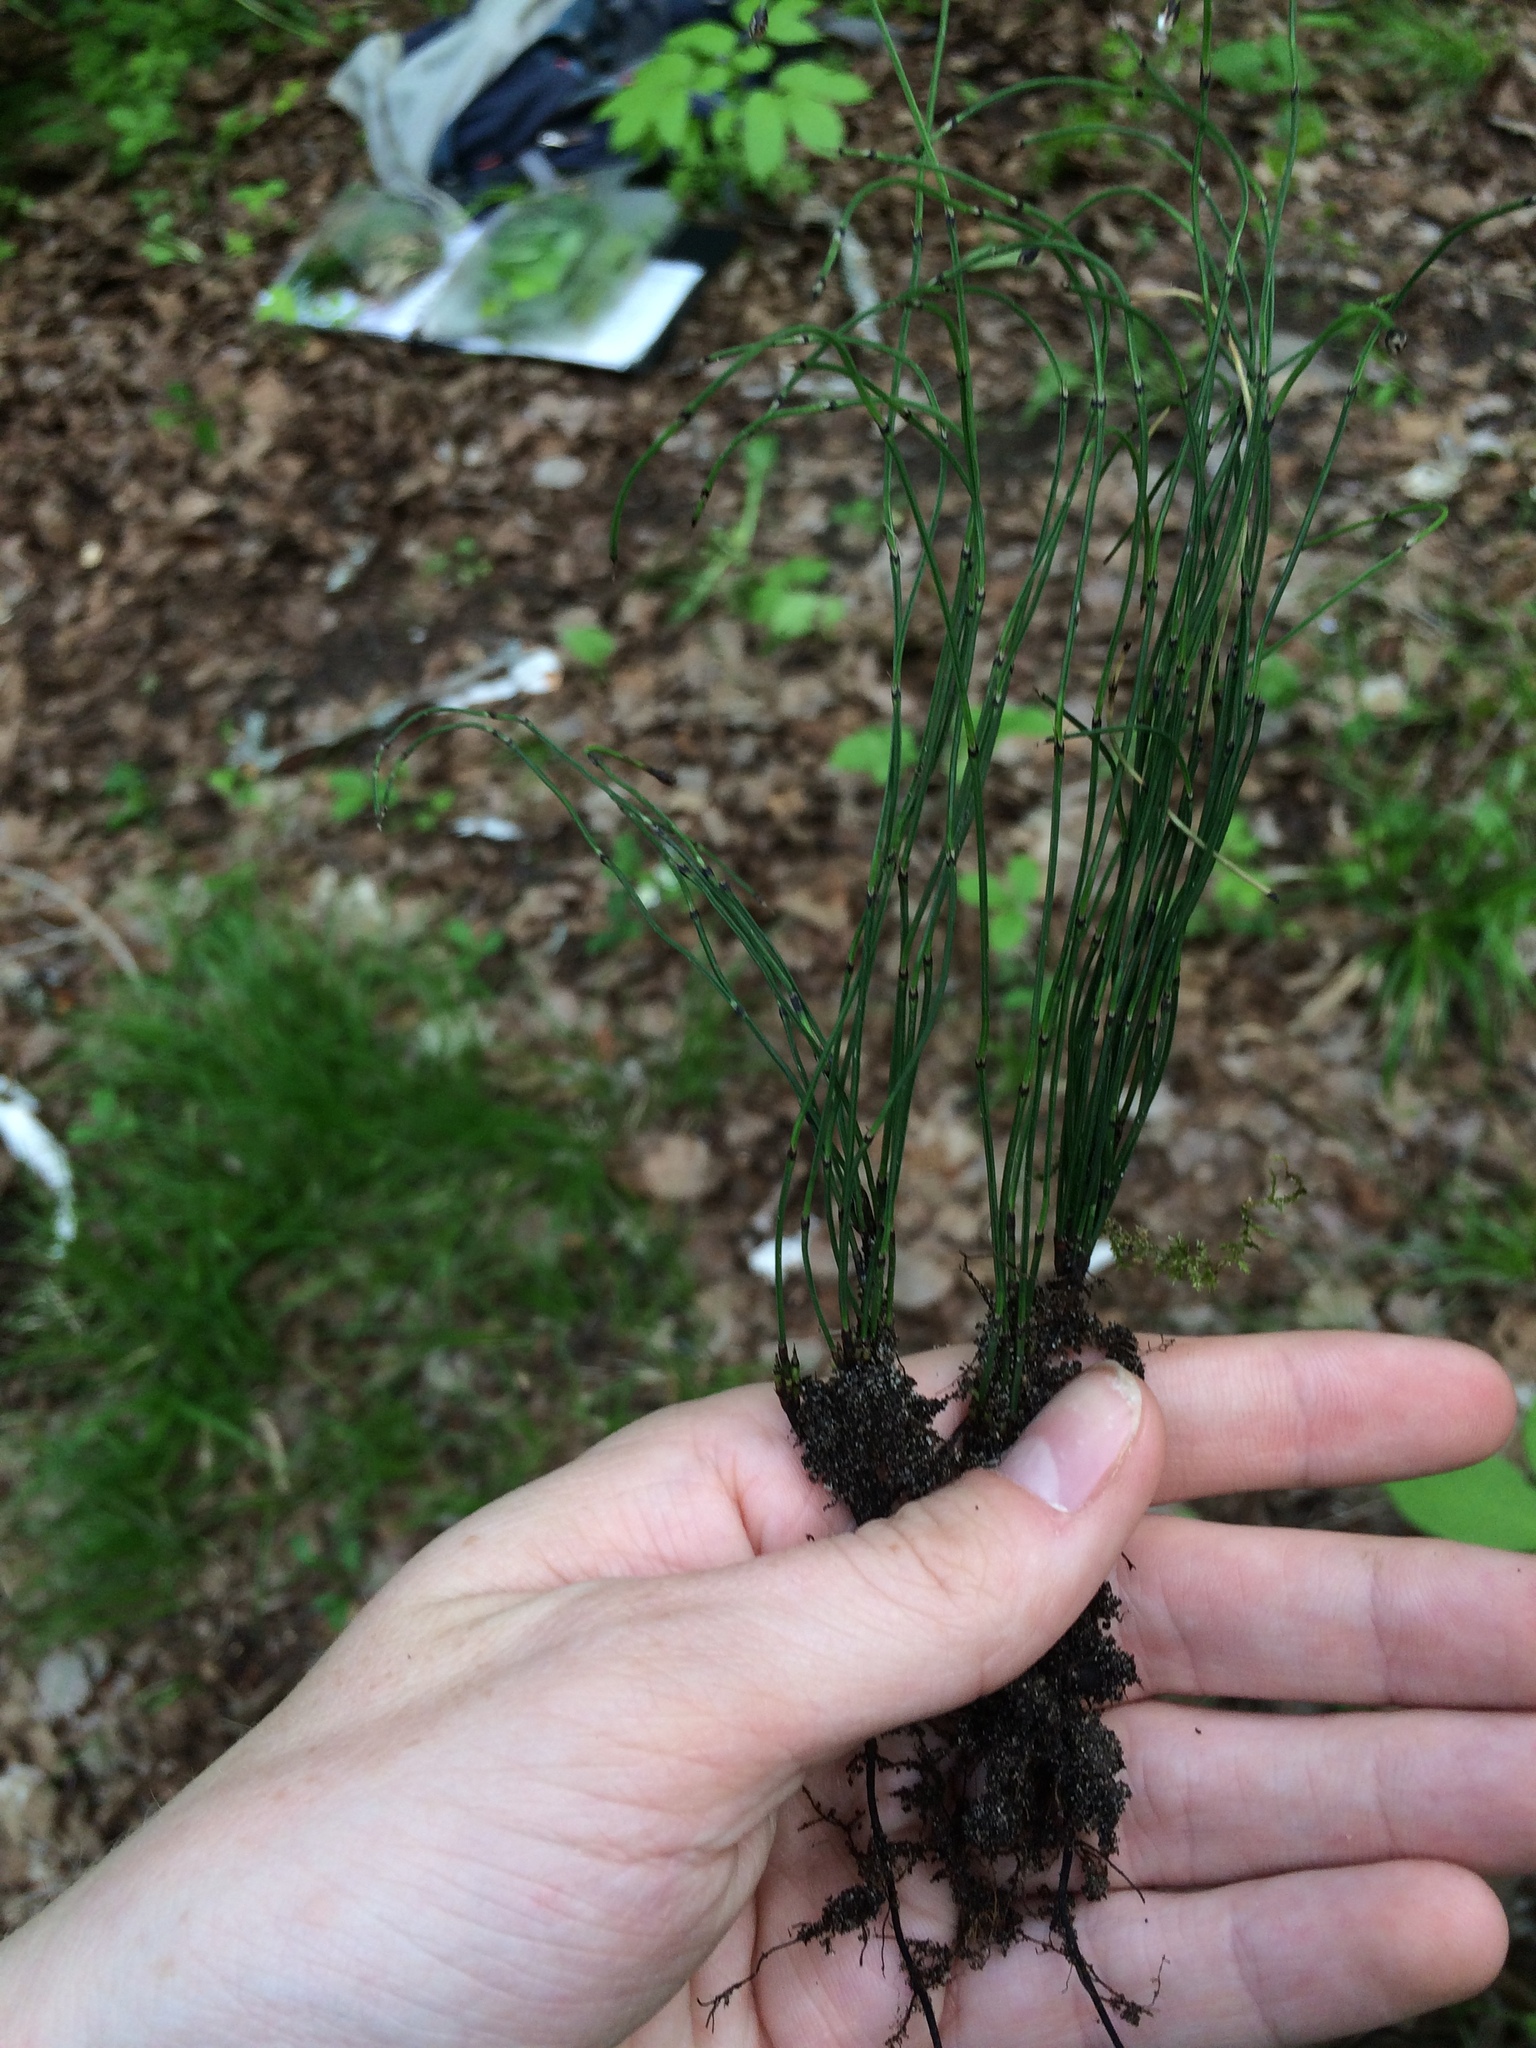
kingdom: Plantae
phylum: Tracheophyta
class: Polypodiopsida
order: Equisetales
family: Equisetaceae
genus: Equisetum
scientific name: Equisetum scirpoides
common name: Delicate horsetail
